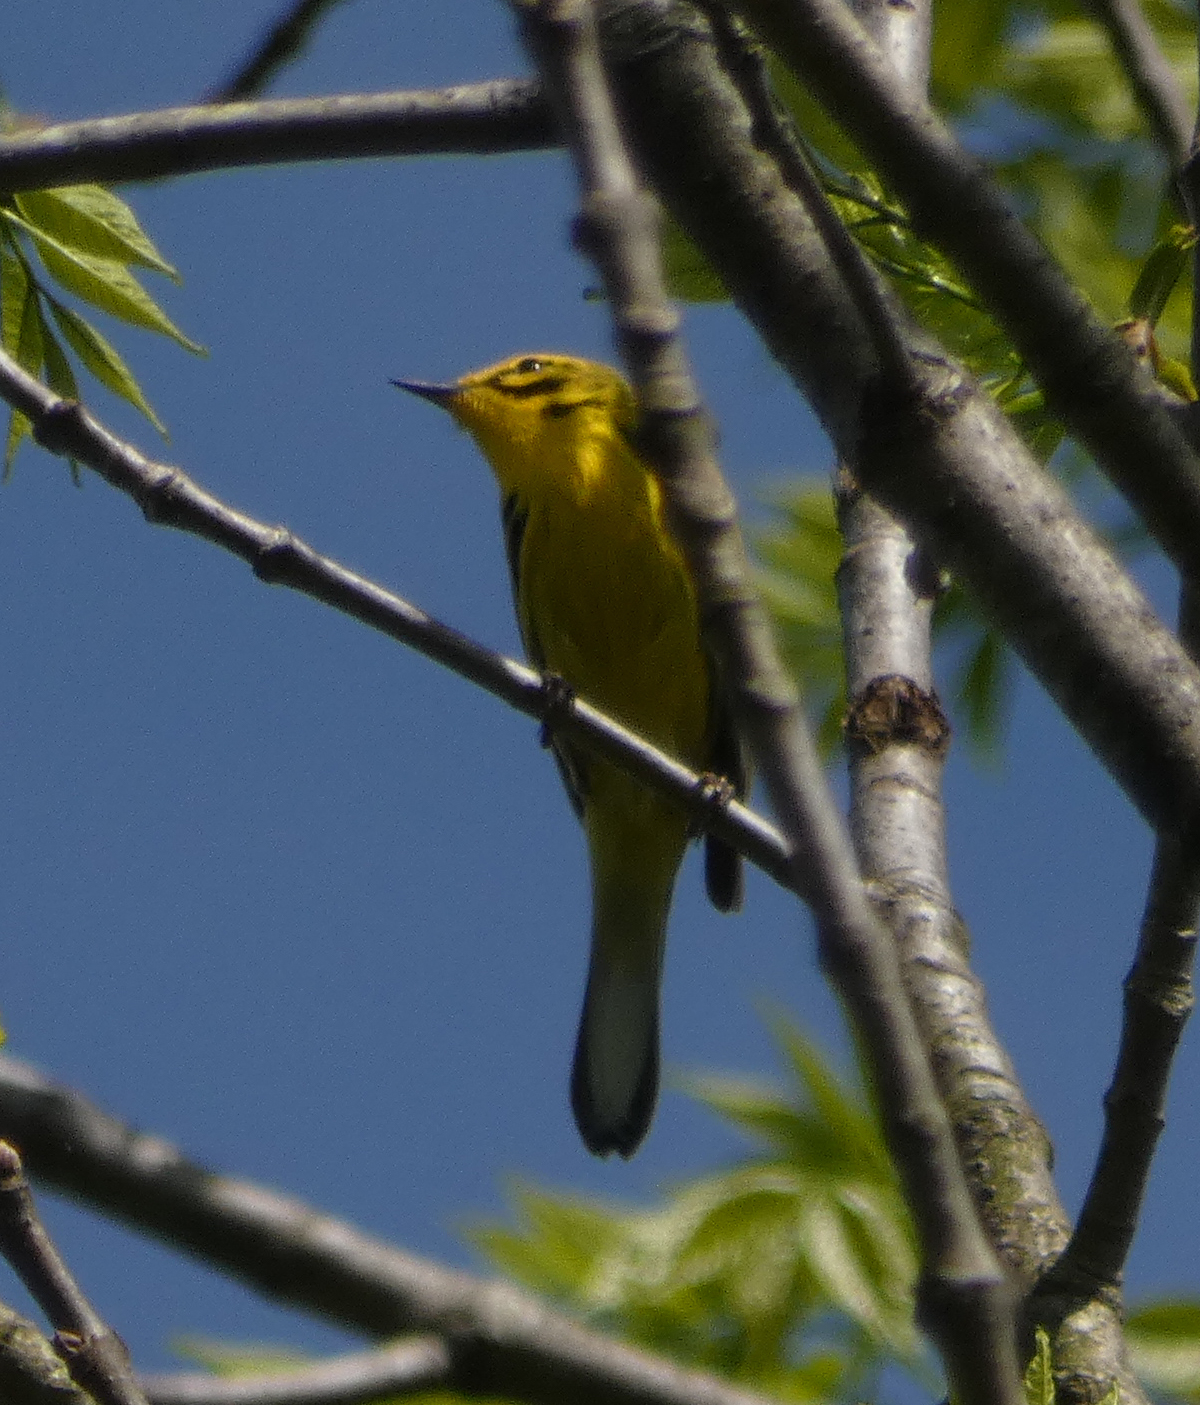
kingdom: Animalia
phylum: Chordata
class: Aves
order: Passeriformes
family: Parulidae
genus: Setophaga
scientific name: Setophaga discolor
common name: Prairie warbler
